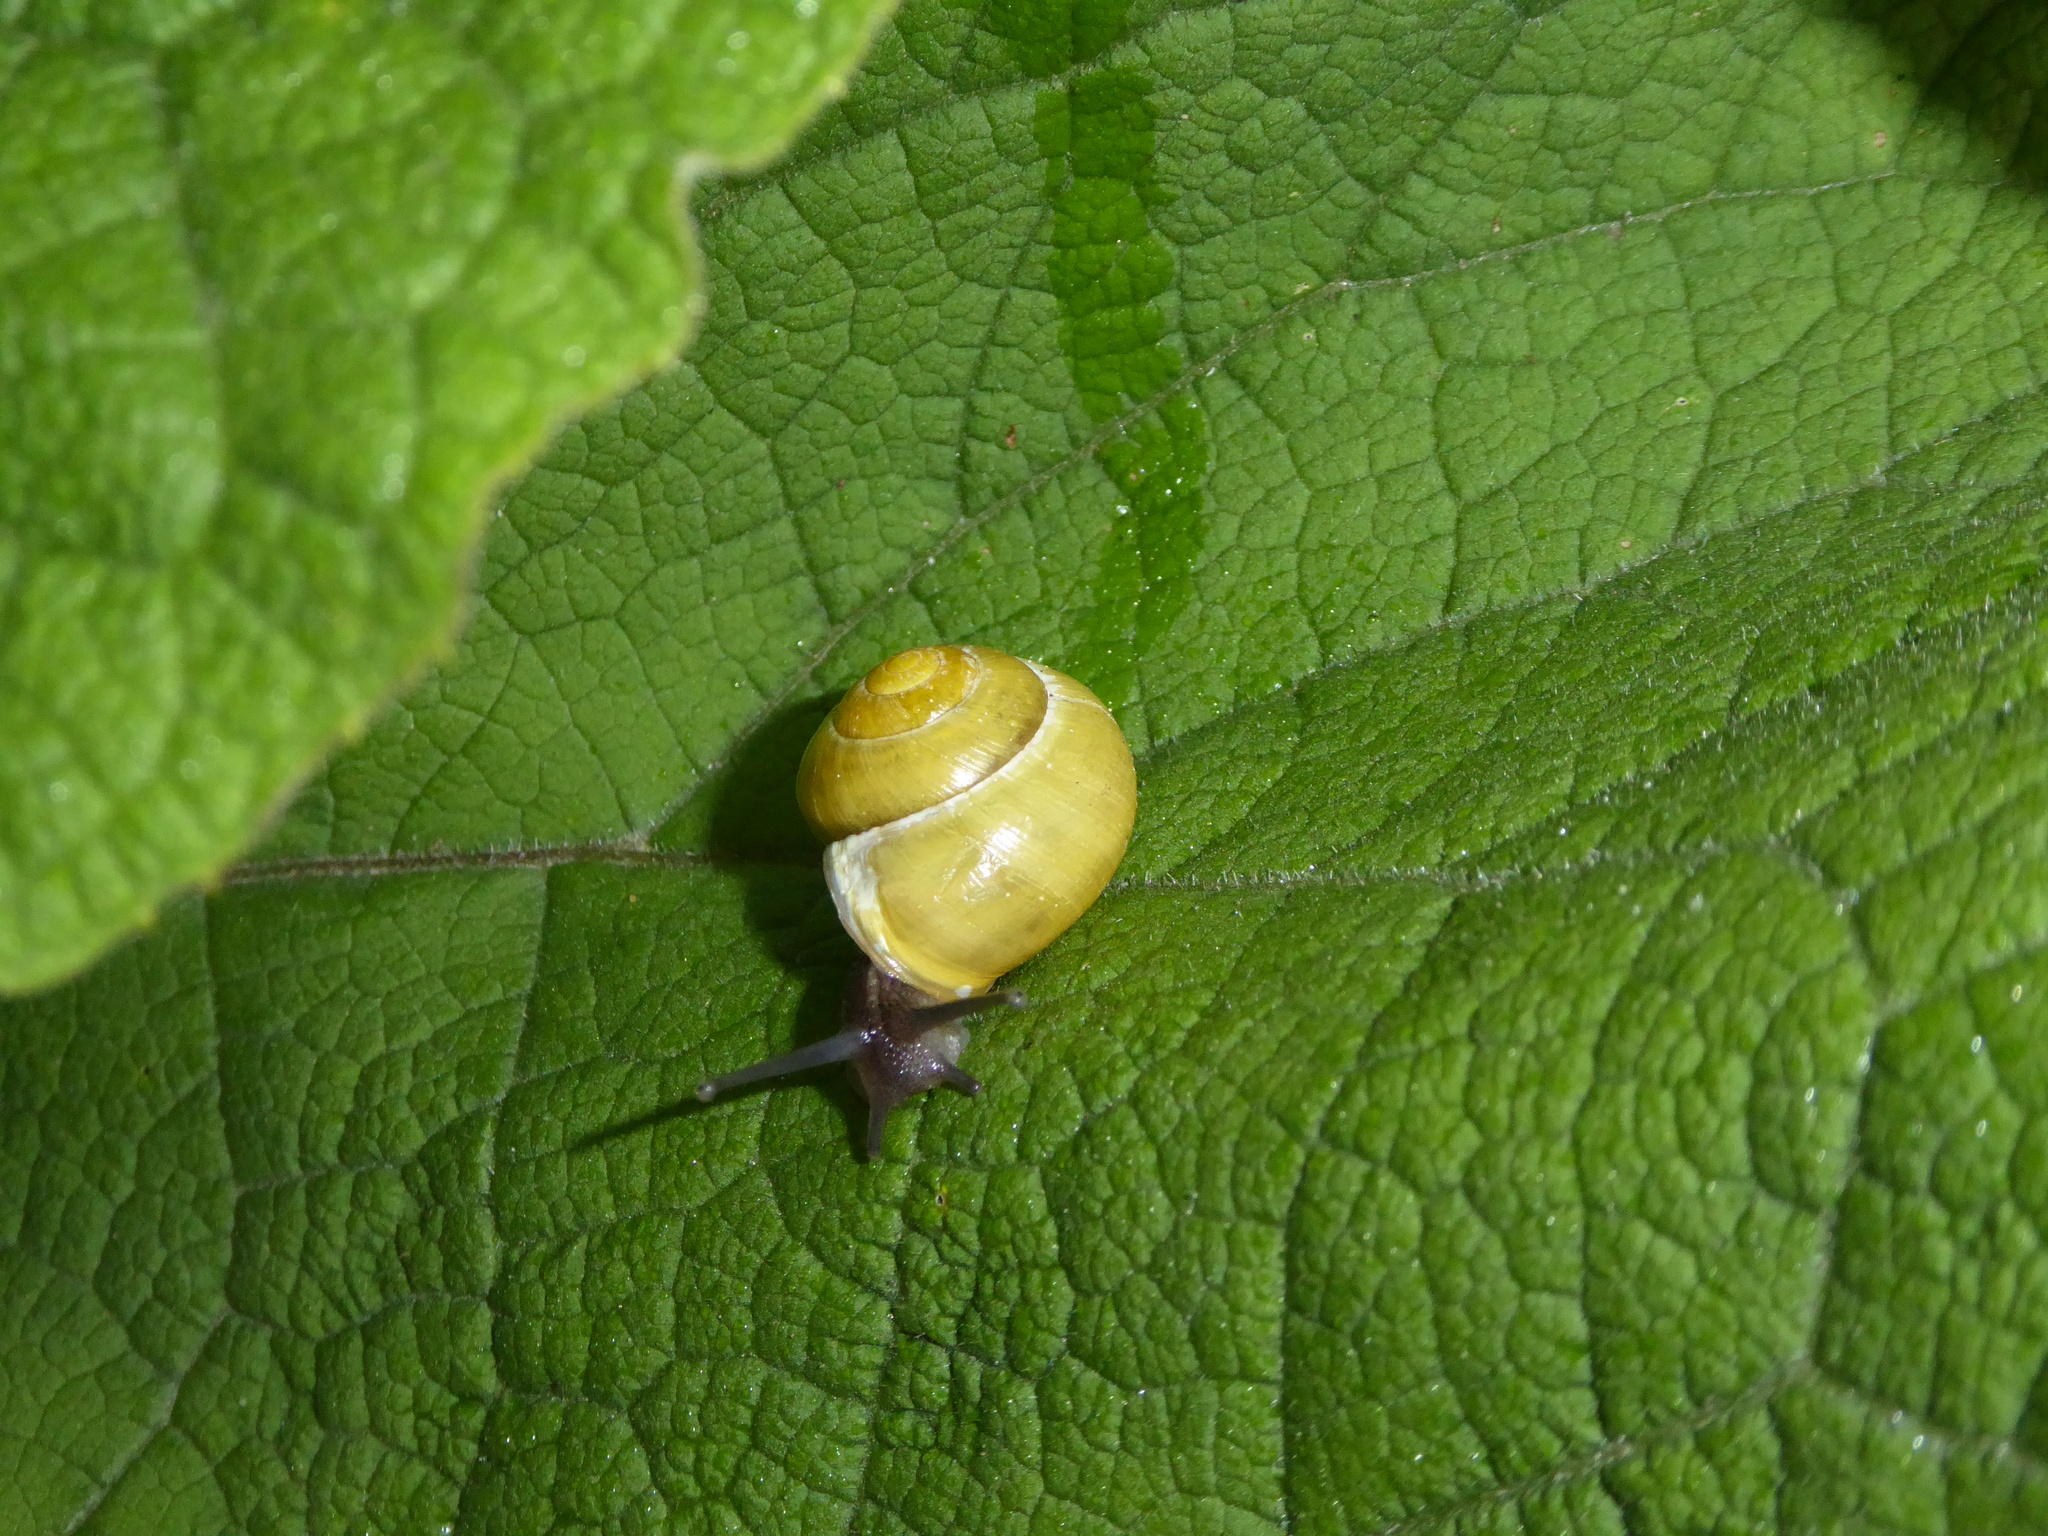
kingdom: Animalia
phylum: Mollusca
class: Gastropoda
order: Stylommatophora
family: Helicidae
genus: Cepaea
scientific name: Cepaea hortensis
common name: White-lip gardensnail
